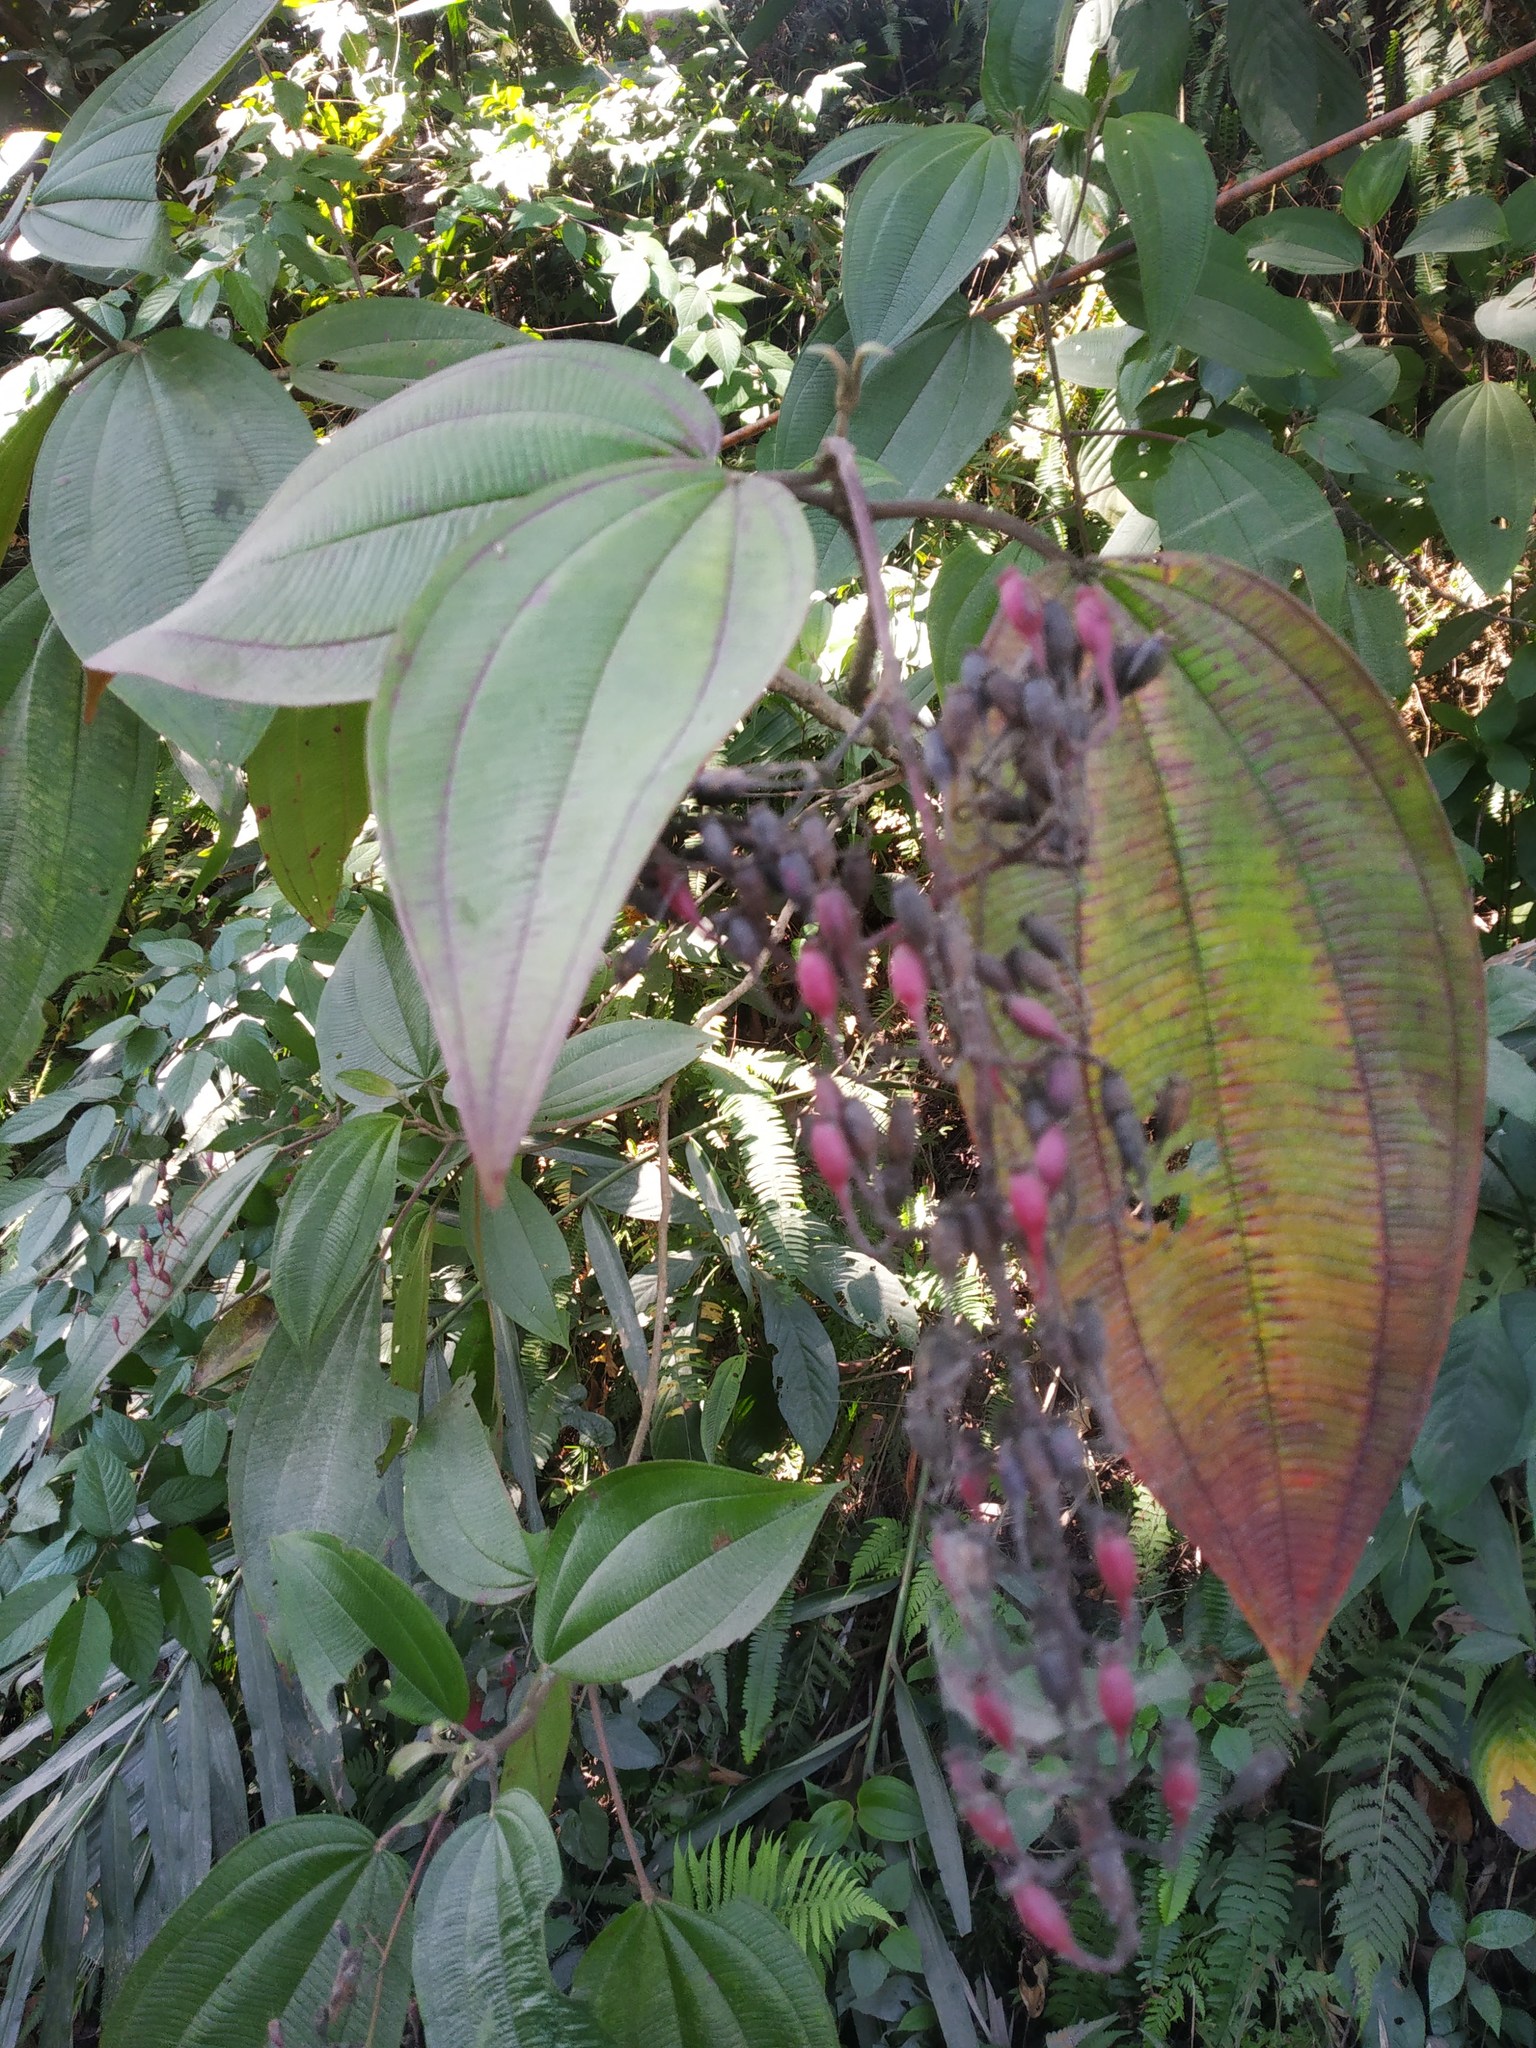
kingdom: Plantae
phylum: Tracheophyta
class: Magnoliopsida
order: Myrtales
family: Melastomataceae
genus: Oxyspora
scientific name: Oxyspora paniculata
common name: Bristletips
